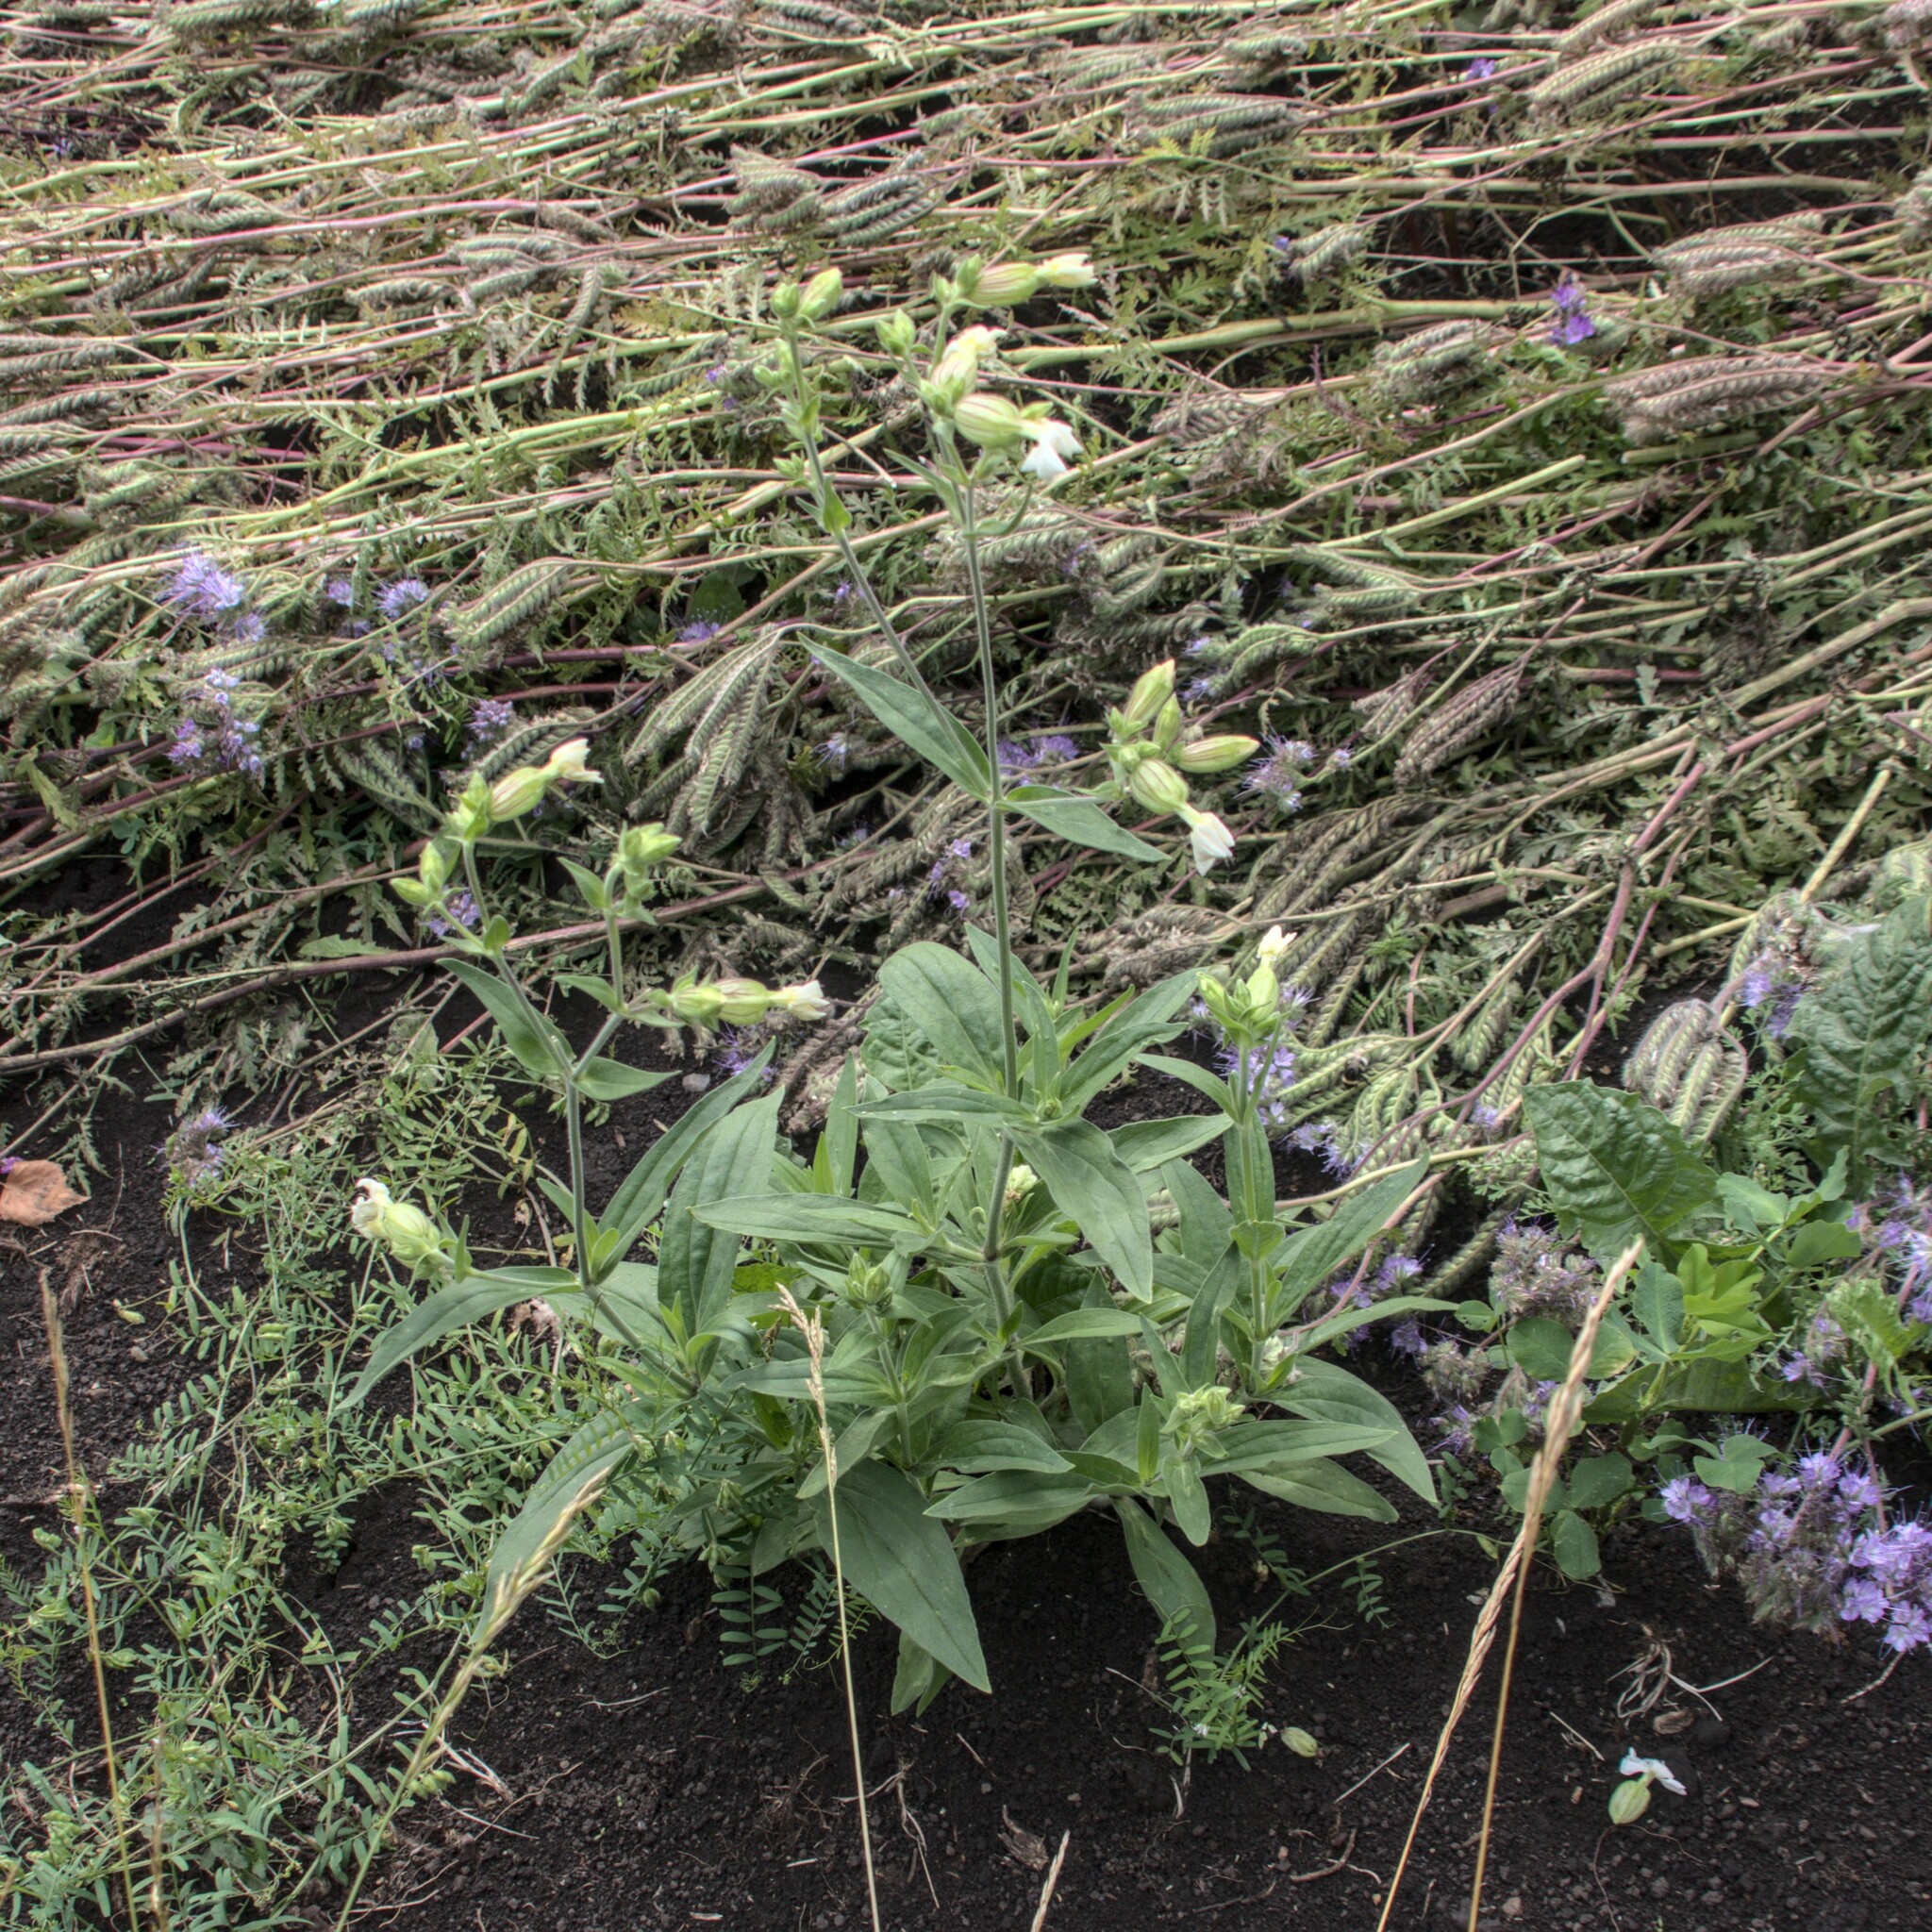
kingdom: Plantae
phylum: Tracheophyta
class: Magnoliopsida
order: Caryophyllales
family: Caryophyllaceae
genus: Silene
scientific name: Silene latifolia
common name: White campion
